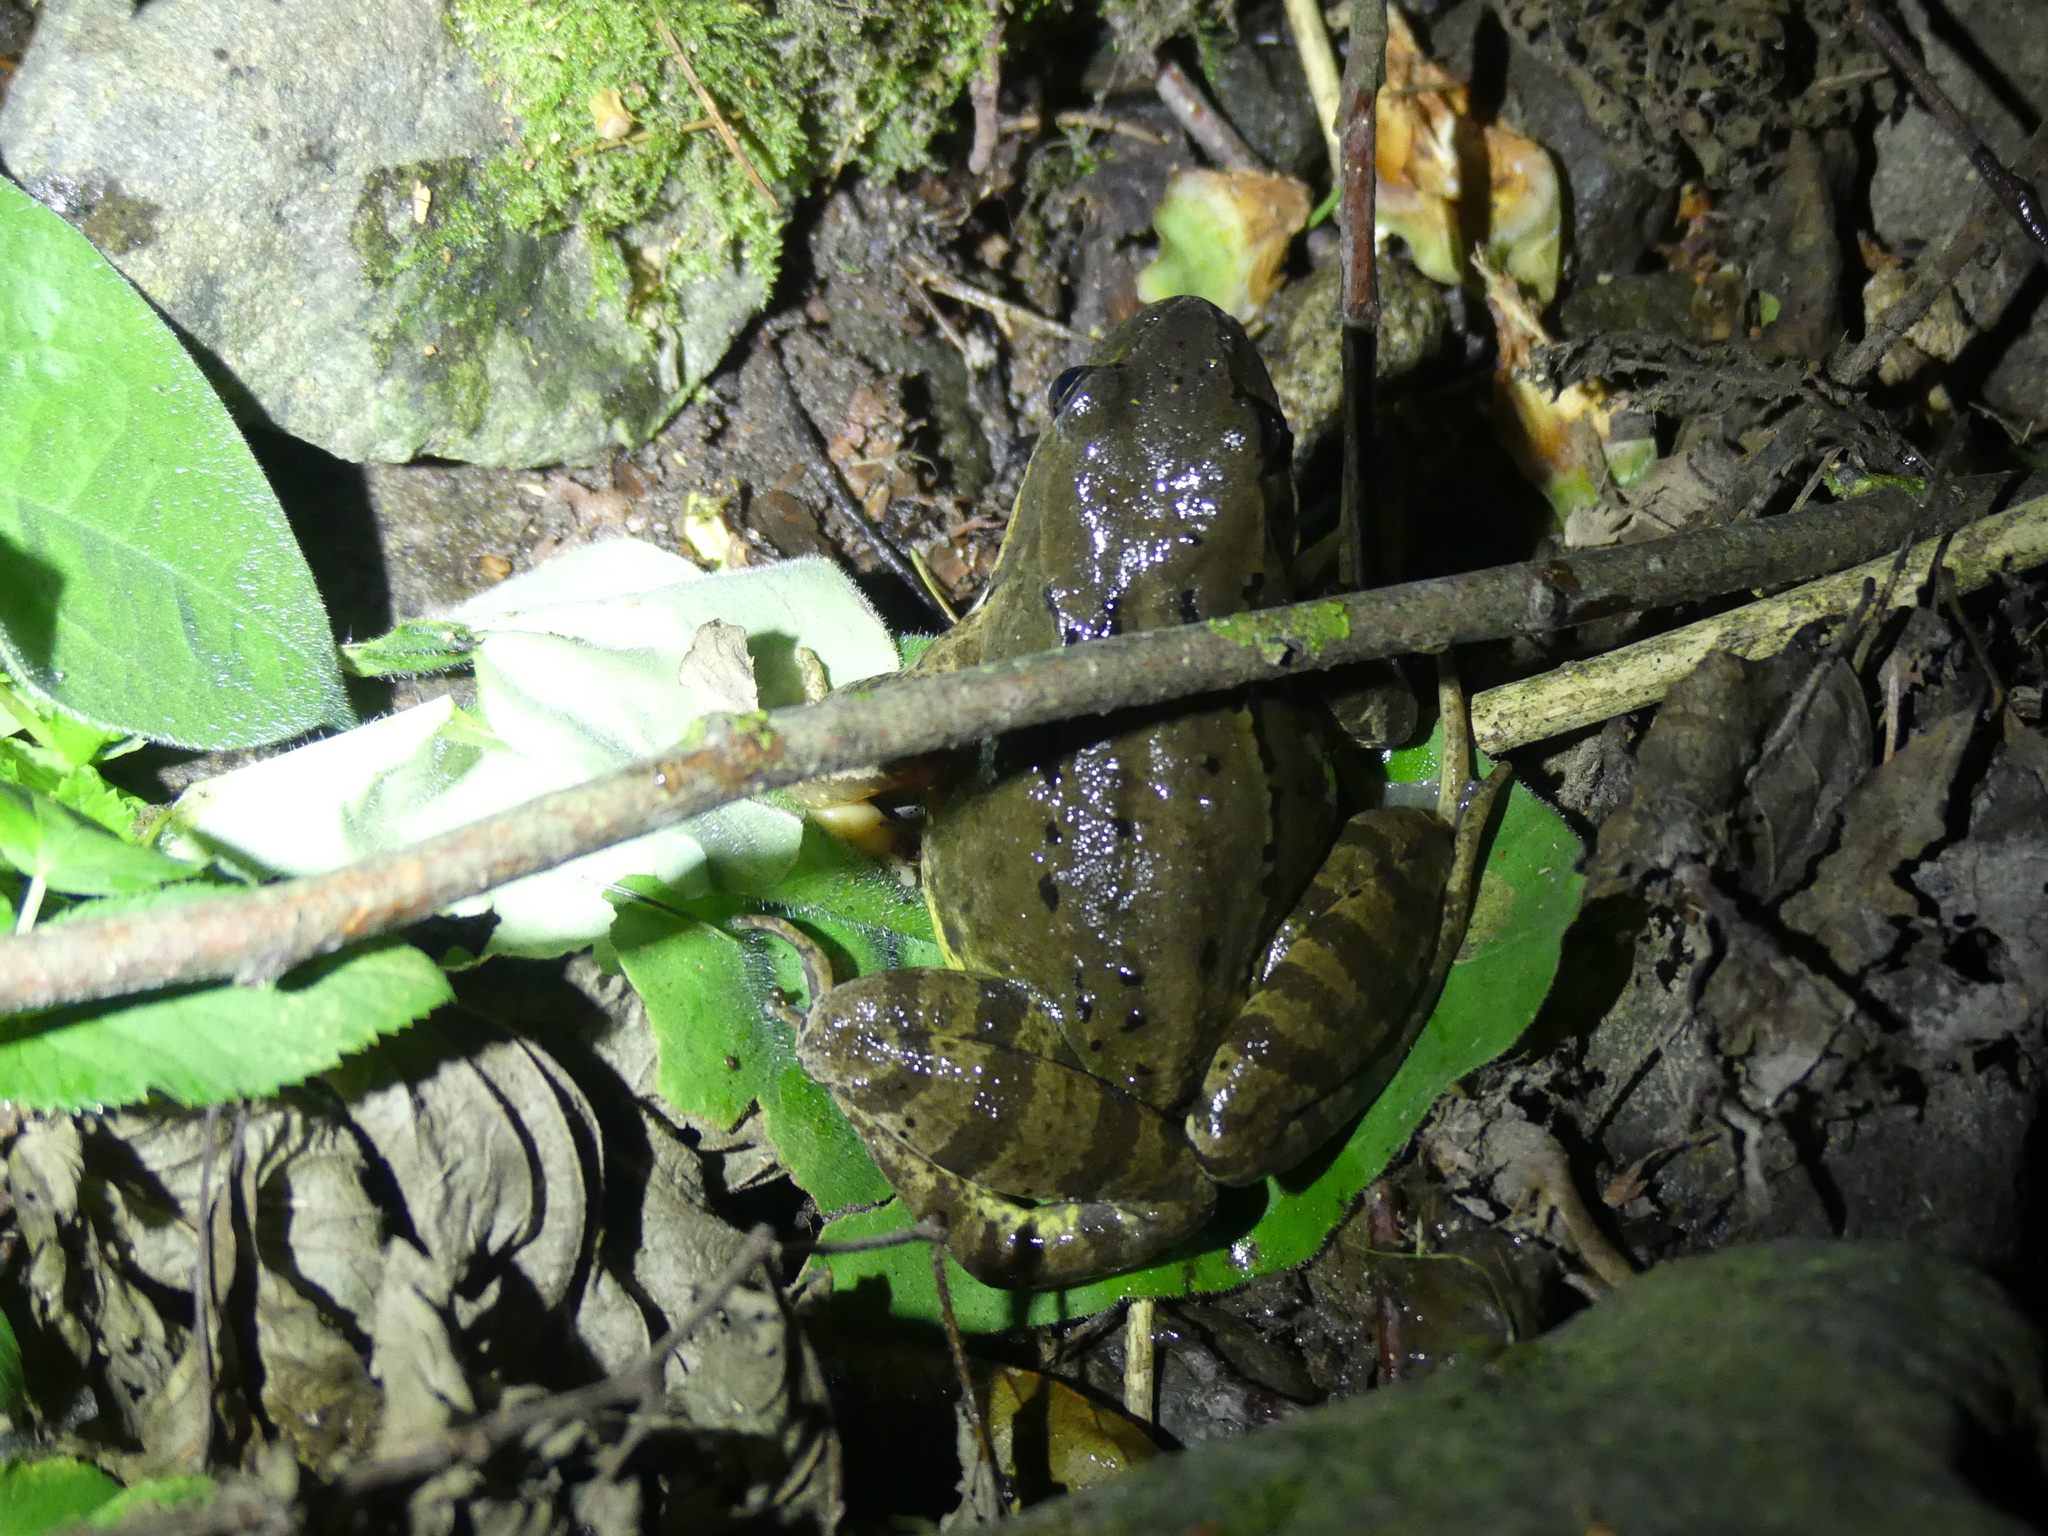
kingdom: Animalia
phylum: Chordata
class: Amphibia
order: Anura
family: Ranidae
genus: Rana
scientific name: Rana temporaria
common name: Common frog
